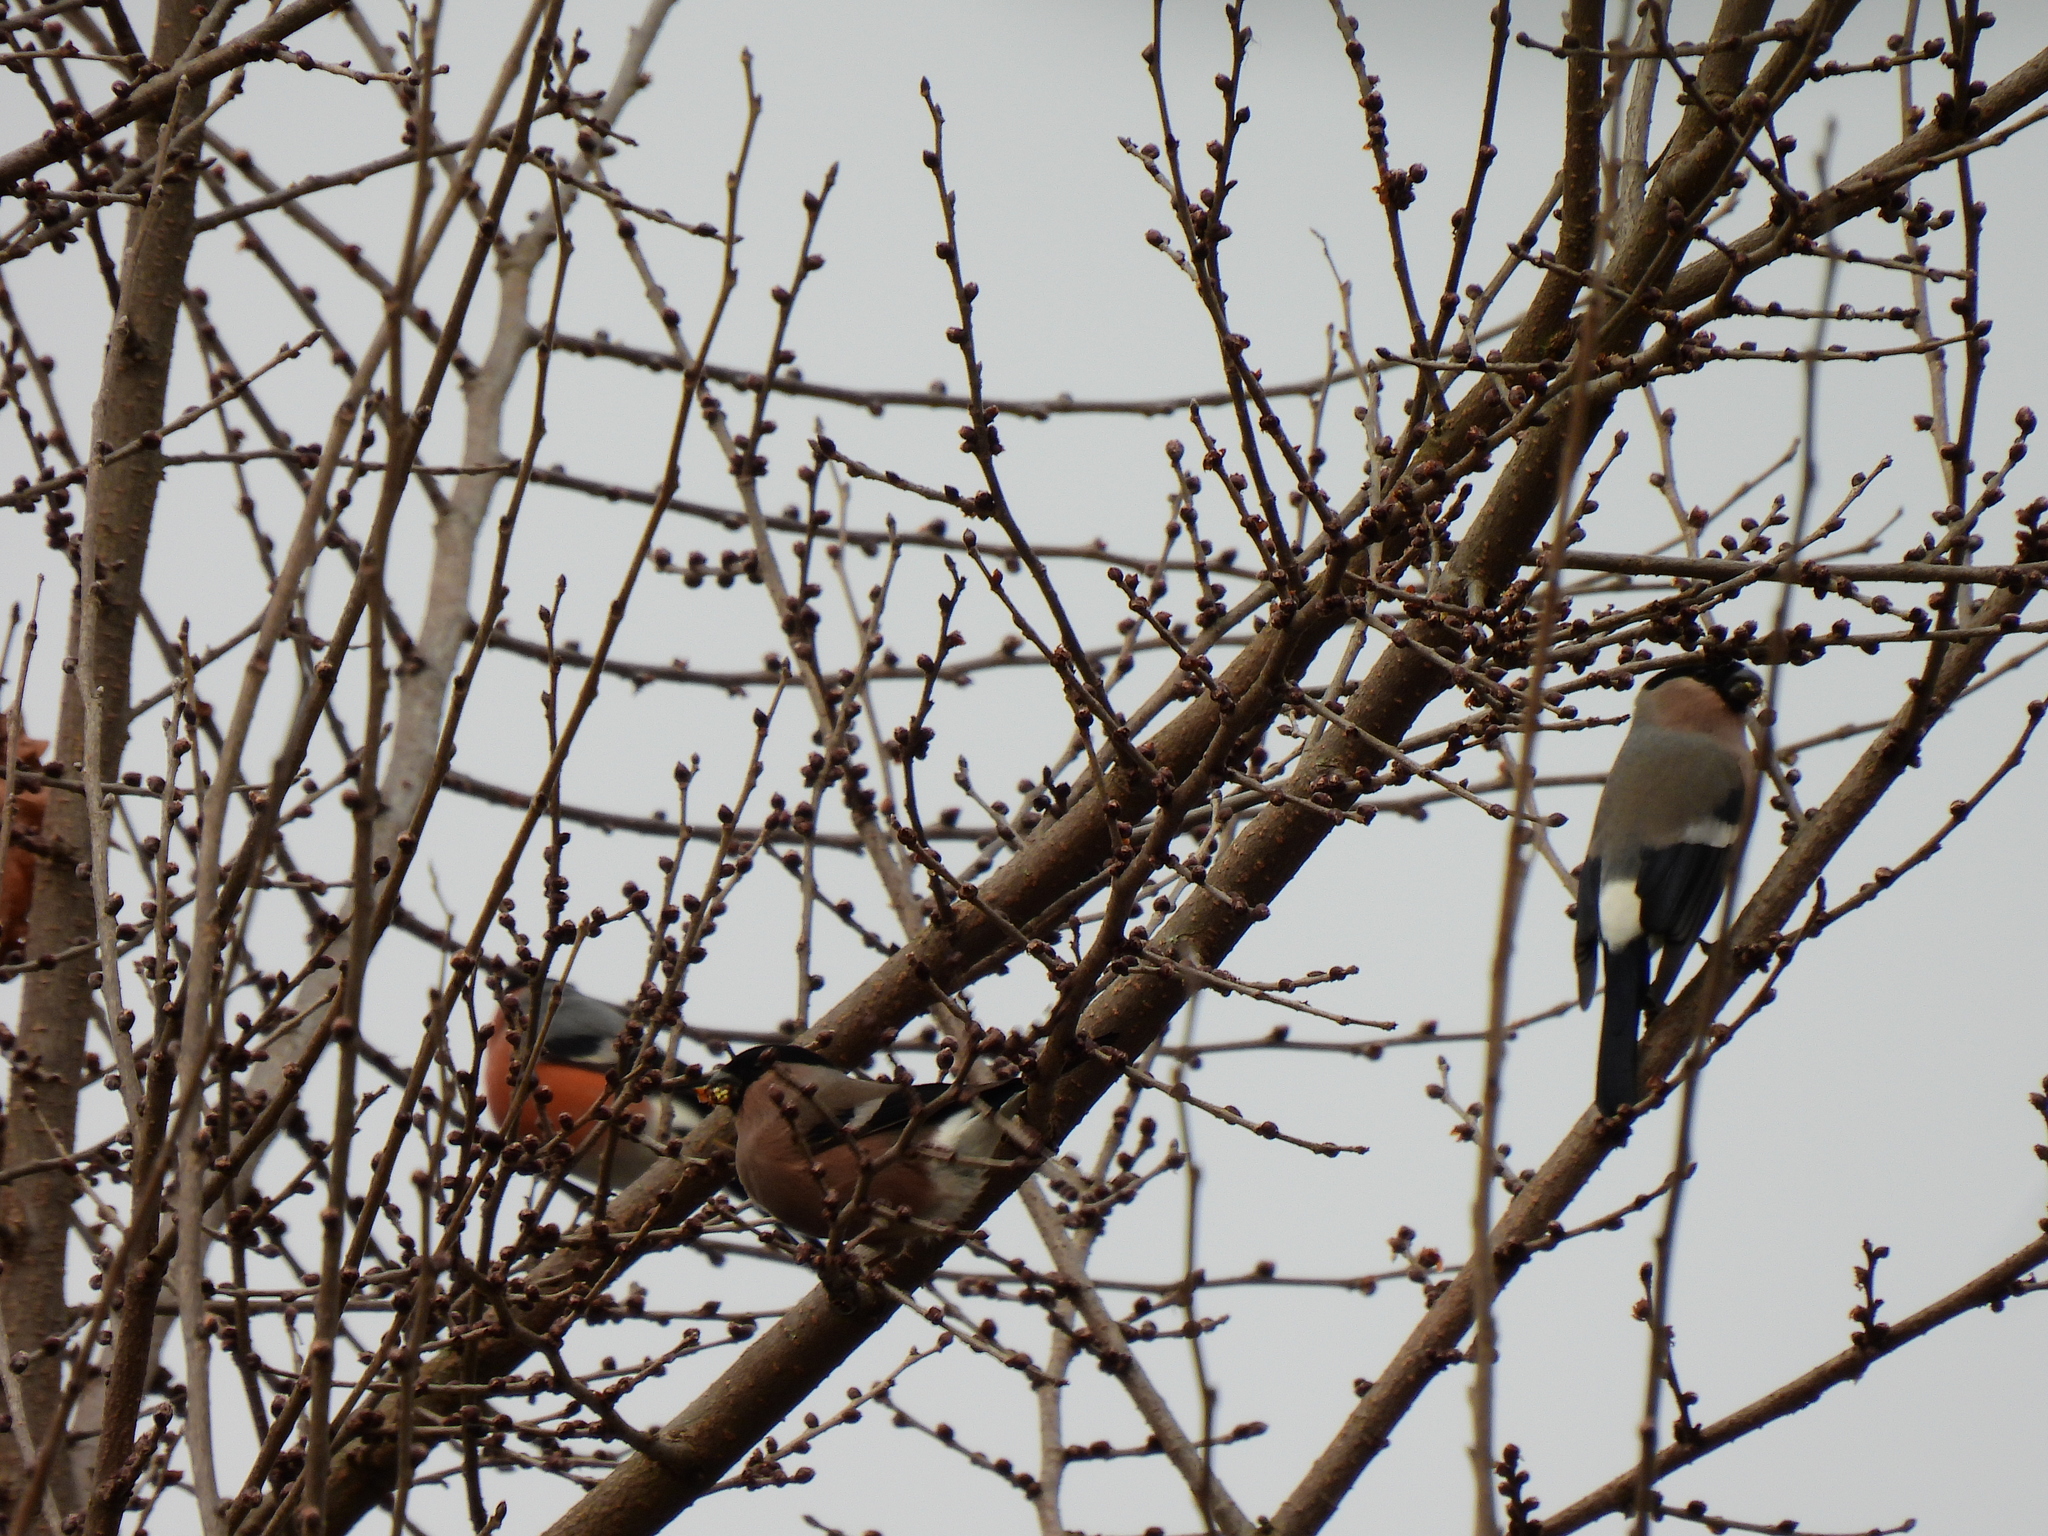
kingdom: Animalia
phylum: Chordata
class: Aves
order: Passeriformes
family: Fringillidae
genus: Pyrrhula
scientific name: Pyrrhula pyrrhula
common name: Eurasian bullfinch
